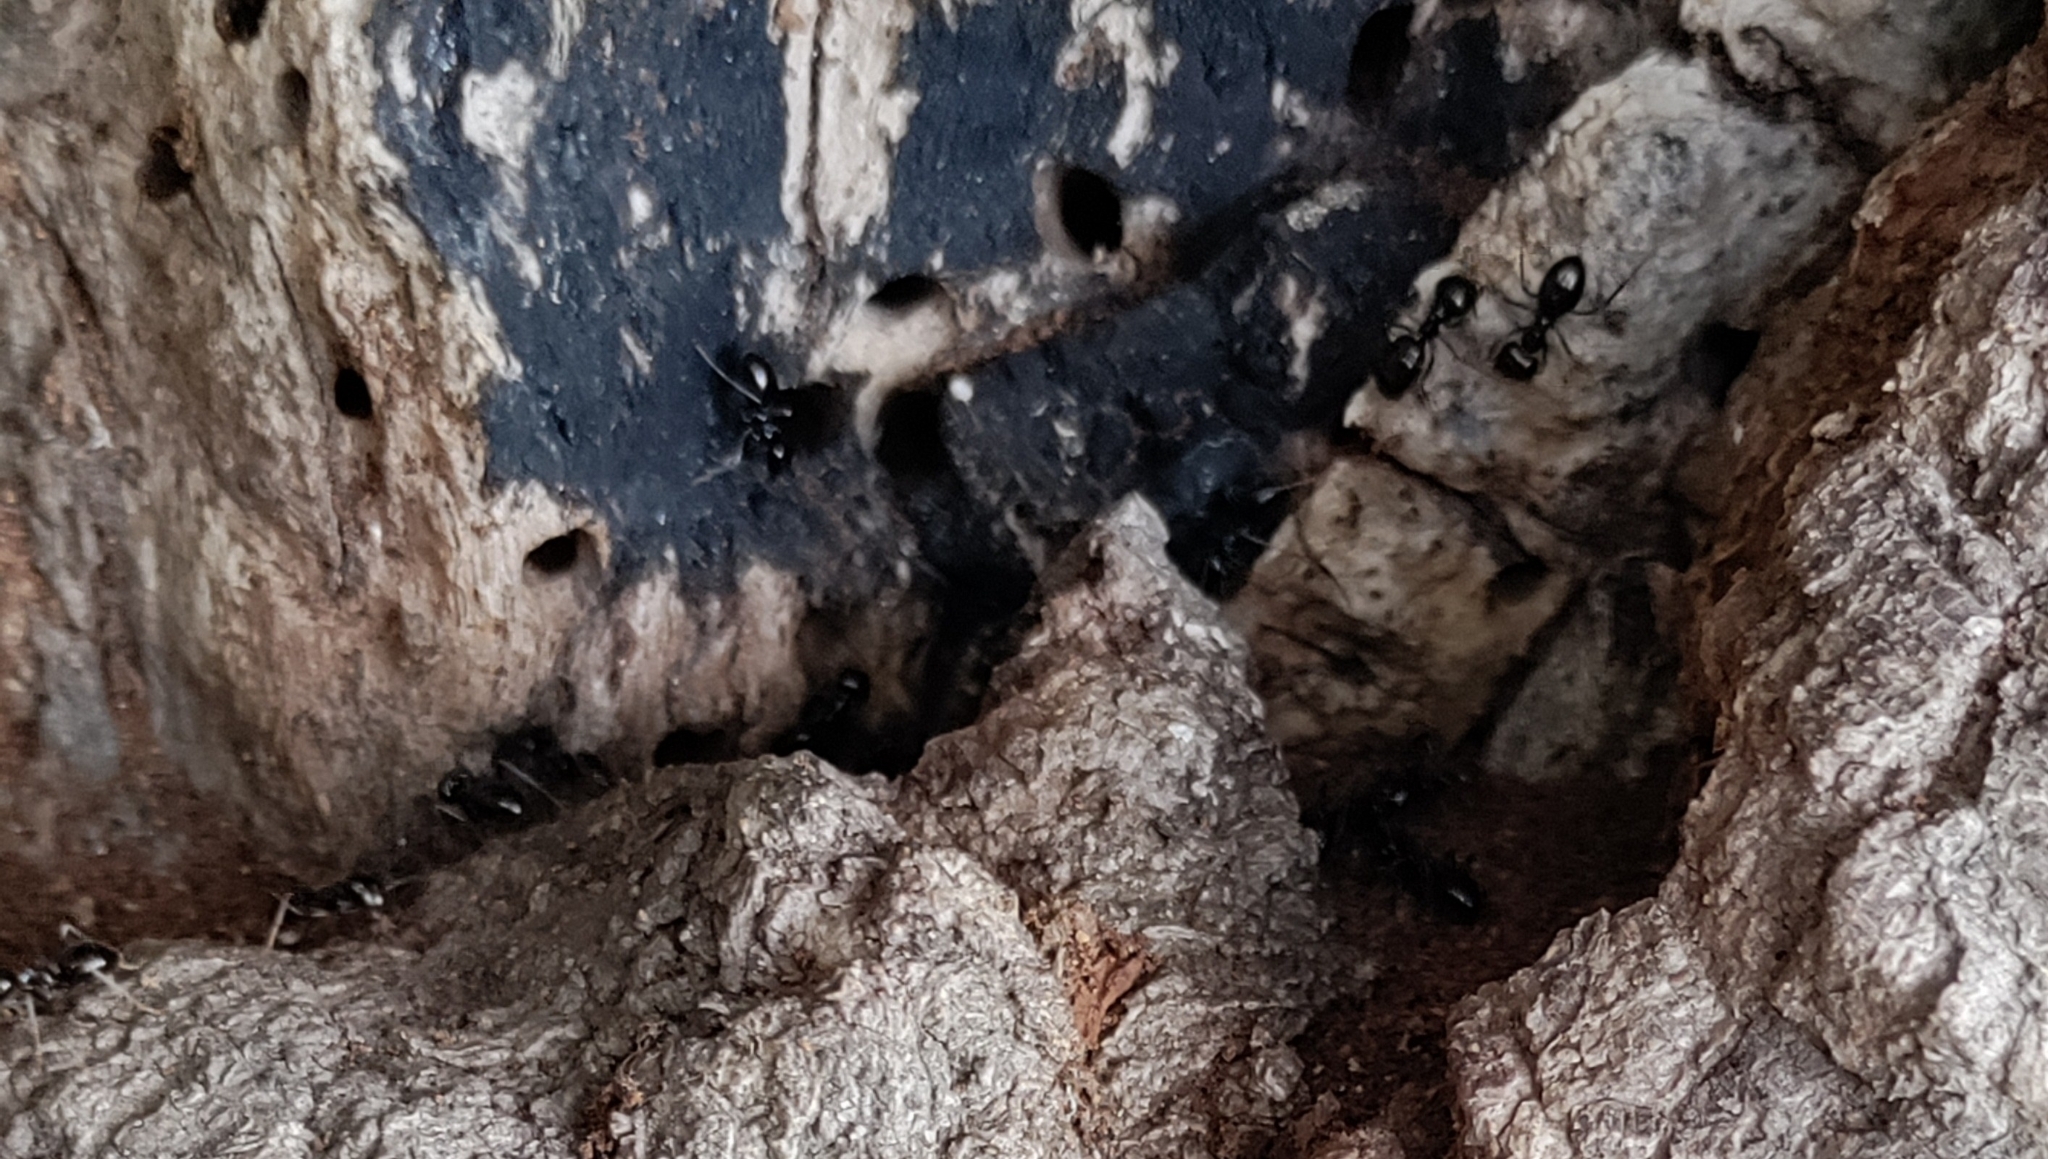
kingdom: Animalia
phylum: Arthropoda
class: Insecta
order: Hymenoptera
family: Formicidae
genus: Lasius
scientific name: Lasius fuliginosus
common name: Jet ant
